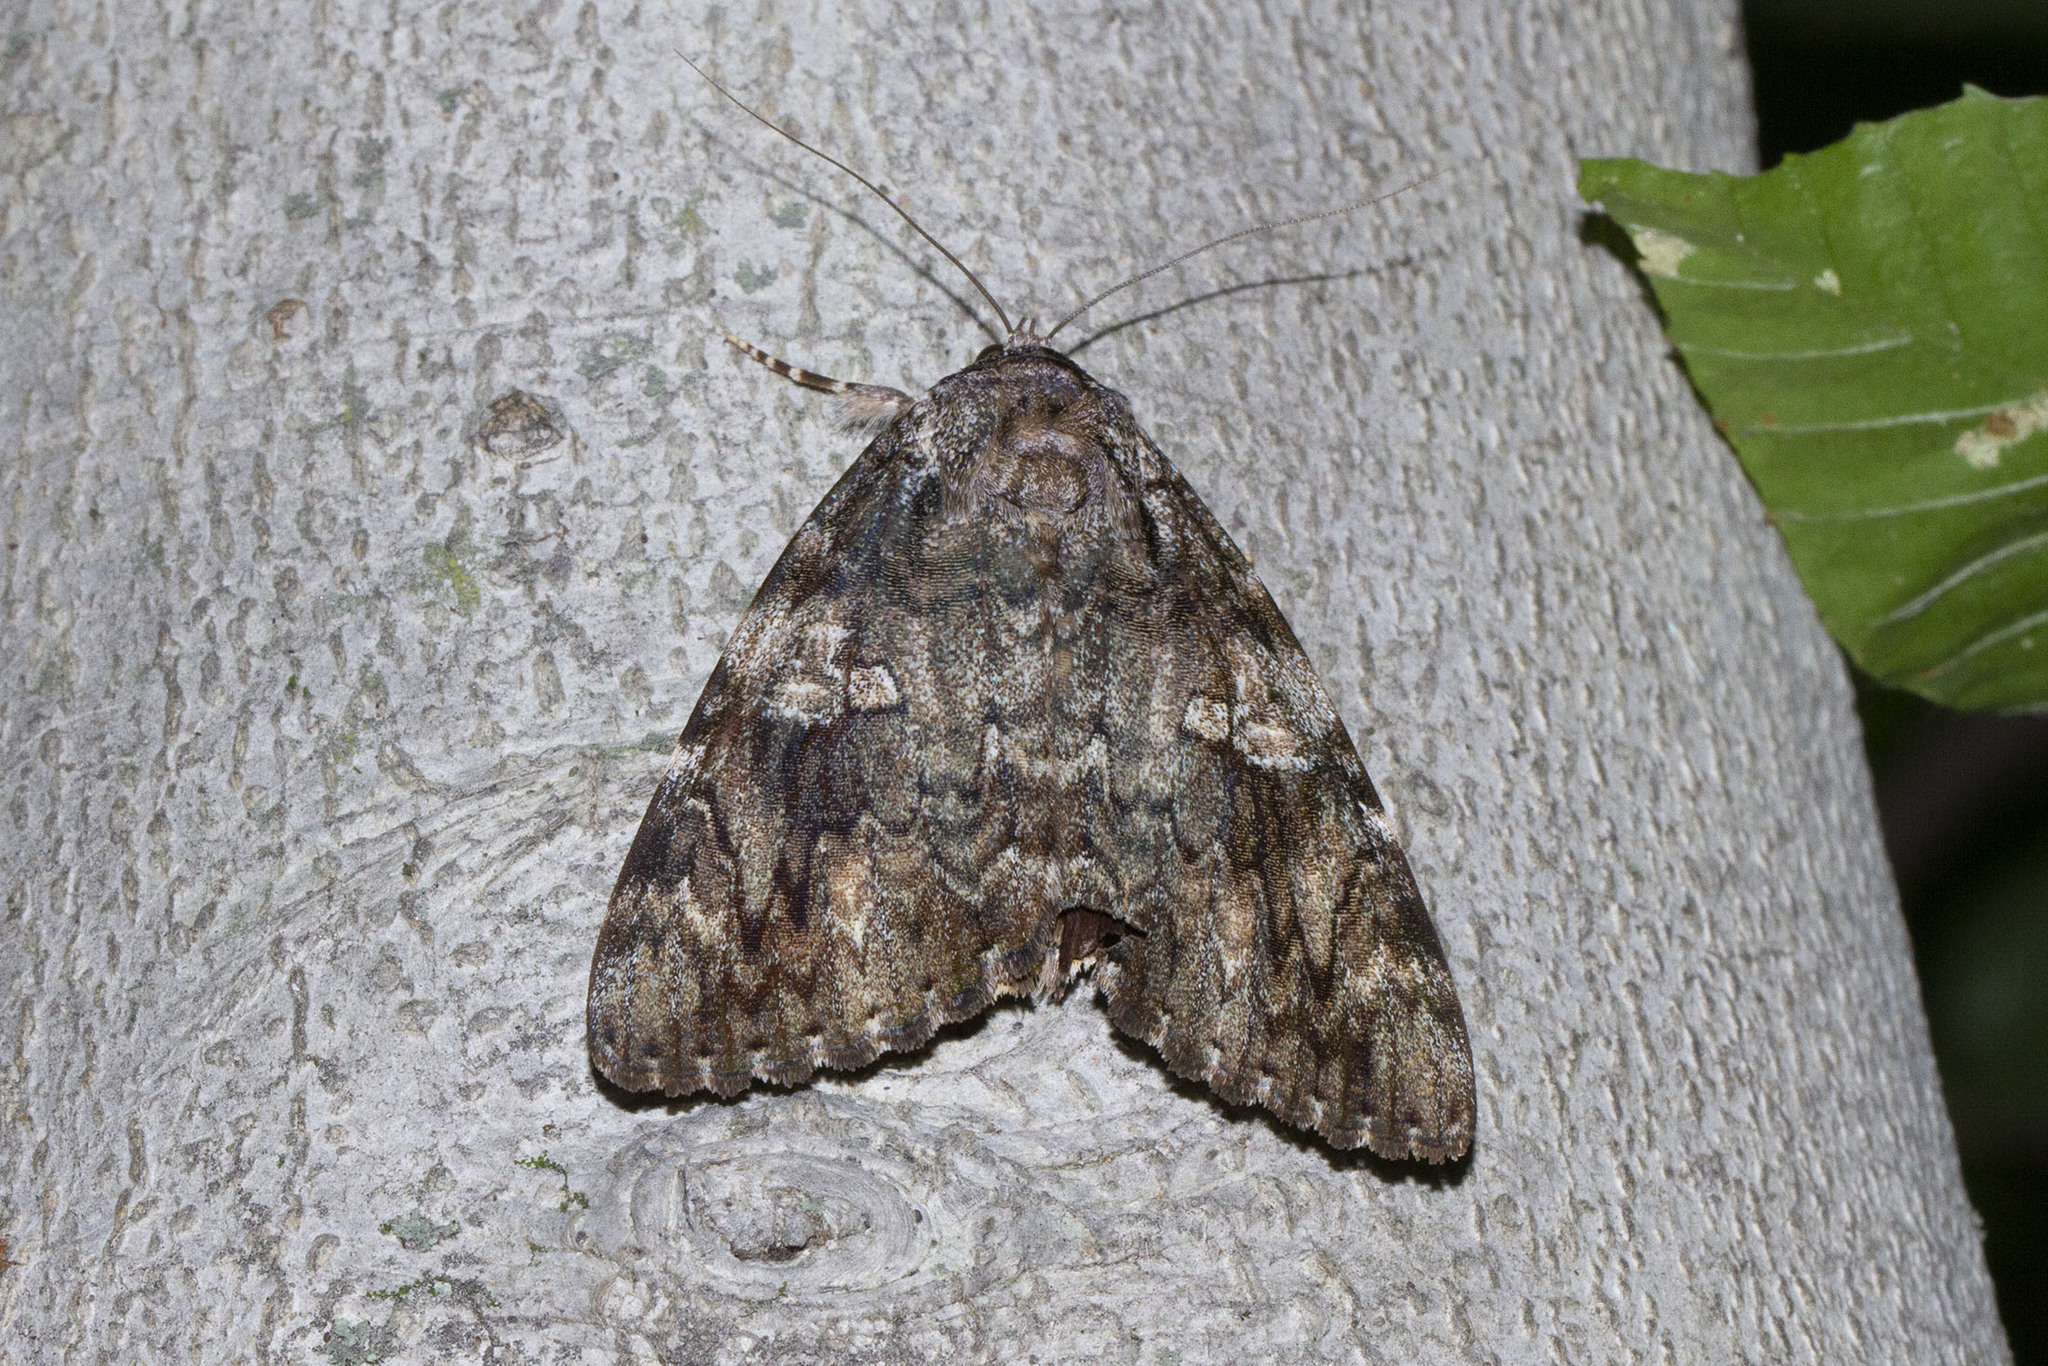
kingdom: Animalia
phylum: Arthropoda
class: Insecta
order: Lepidoptera
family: Erebidae
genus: Catocala
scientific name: Catocala ilia
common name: Ilia underwing
